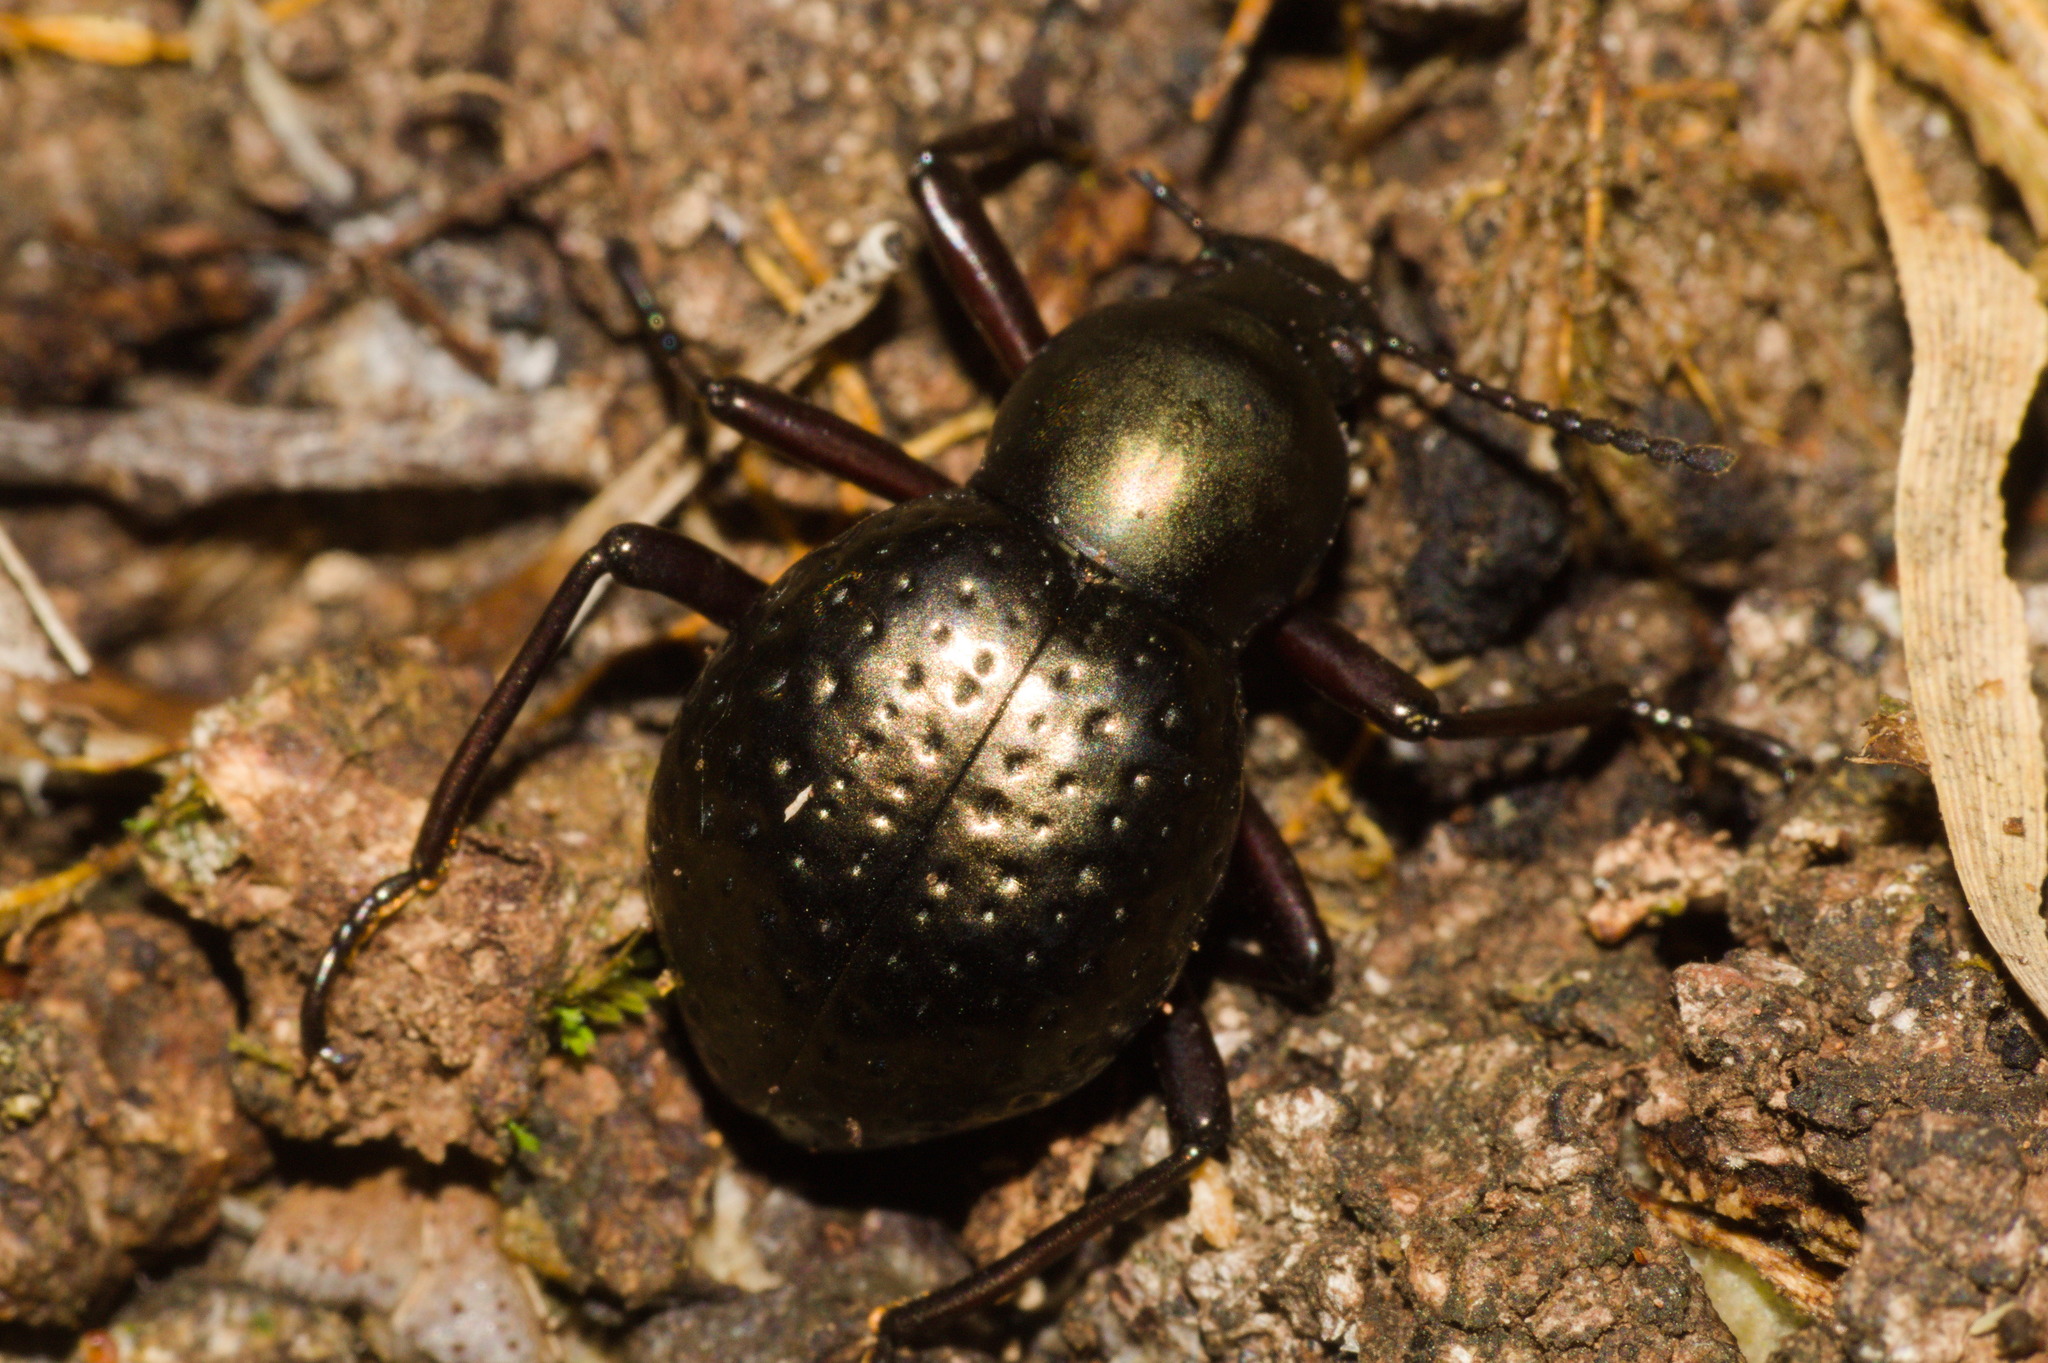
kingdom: Animalia
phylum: Arthropoda
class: Insecta
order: Coleoptera
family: Tenebrionidae
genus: Sphaerotus
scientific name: Sphaerotus
